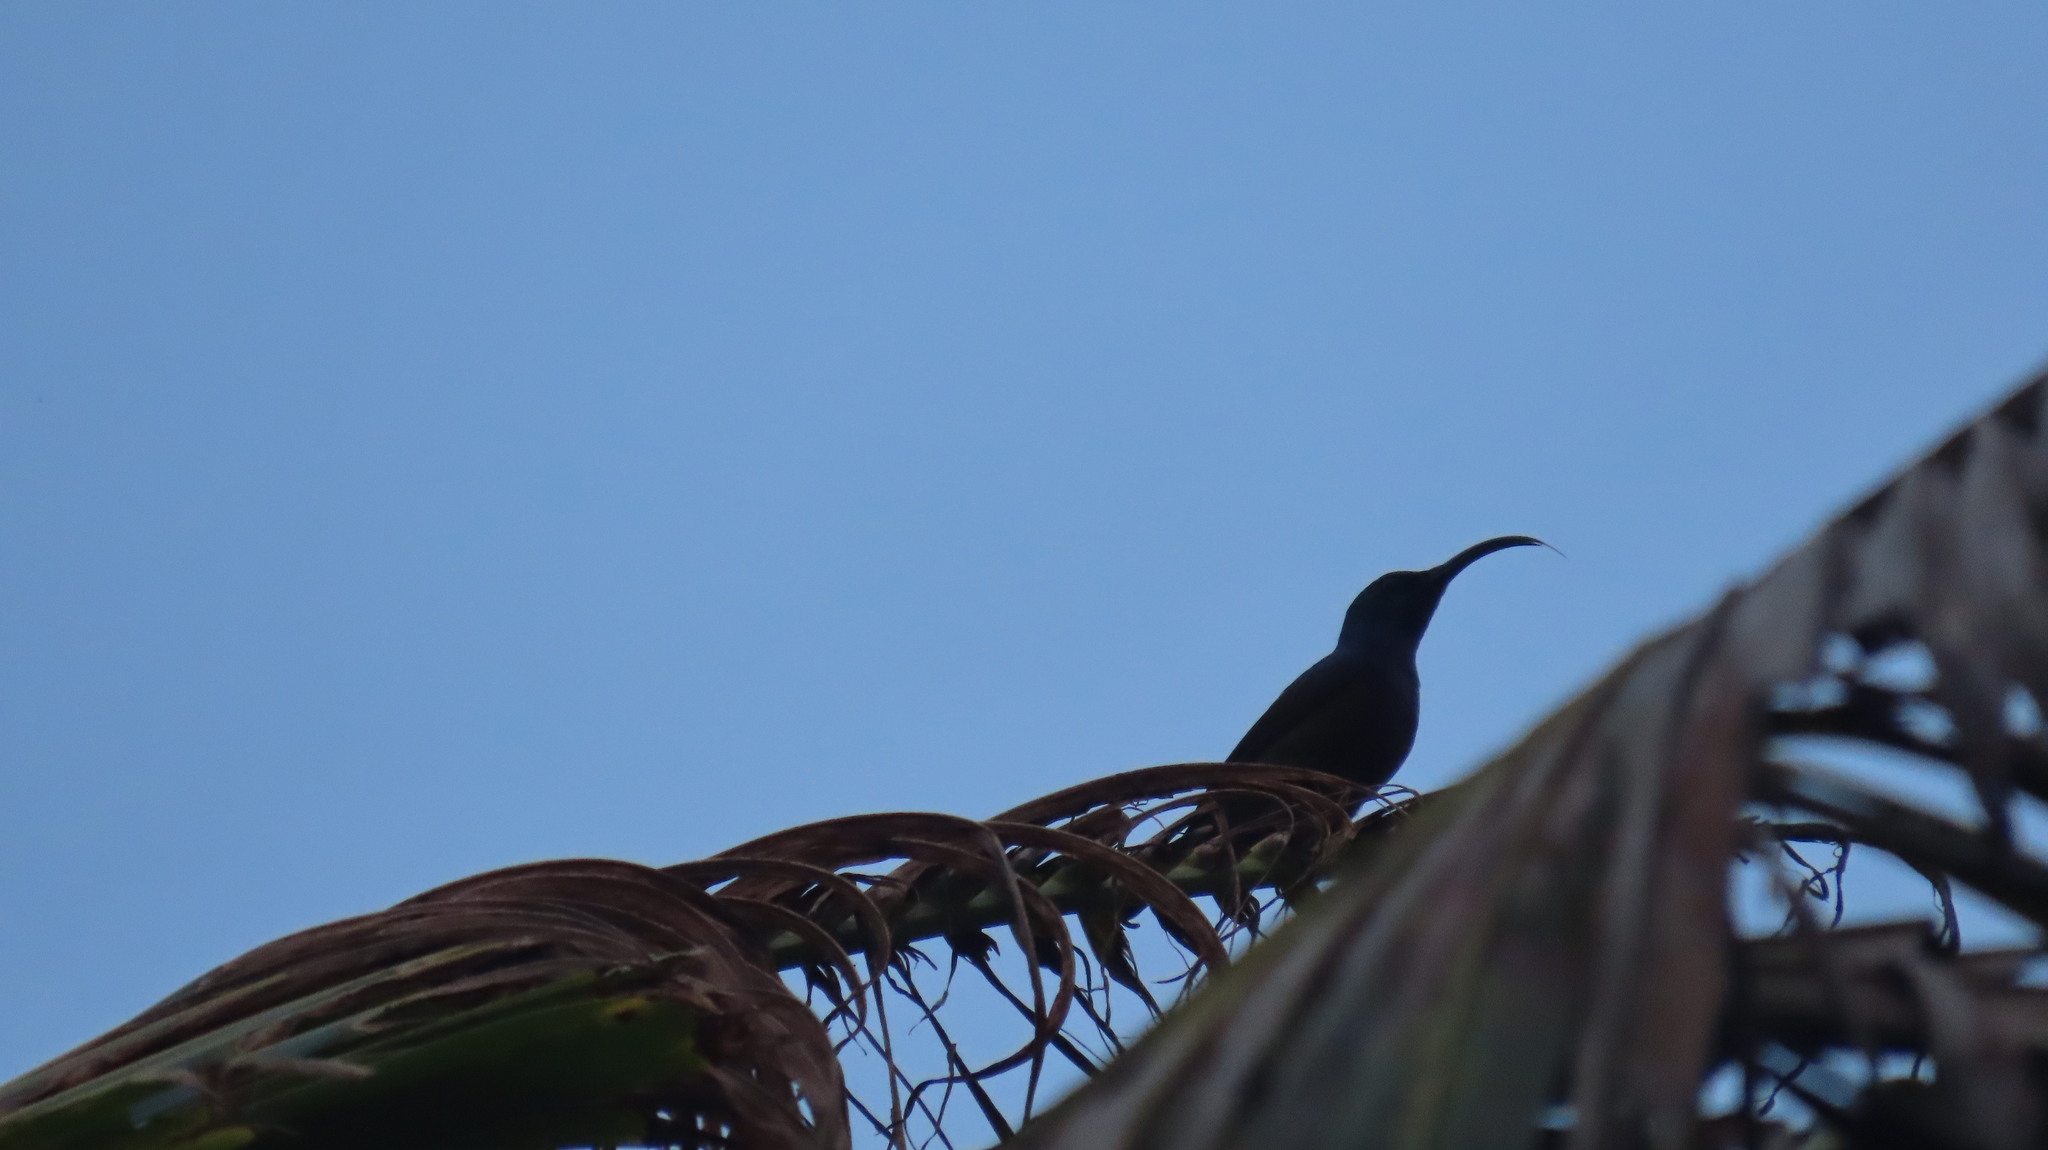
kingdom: Animalia
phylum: Chordata
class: Aves
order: Passeriformes
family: Nectariniidae
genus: Cinnyris
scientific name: Cinnyris lotenius
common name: Loten's sunbird
